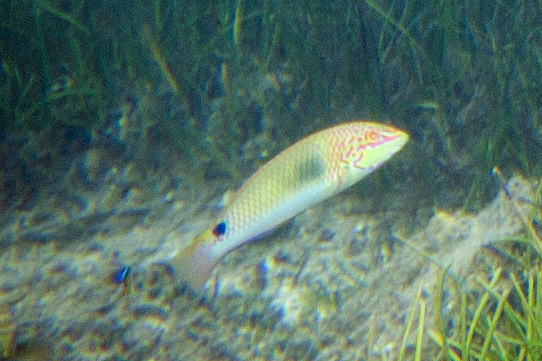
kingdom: Animalia
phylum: Chordata
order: Perciformes
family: Labridae
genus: Halichoeres
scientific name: Halichoeres trimaculatus
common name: Three-spot wrasse
